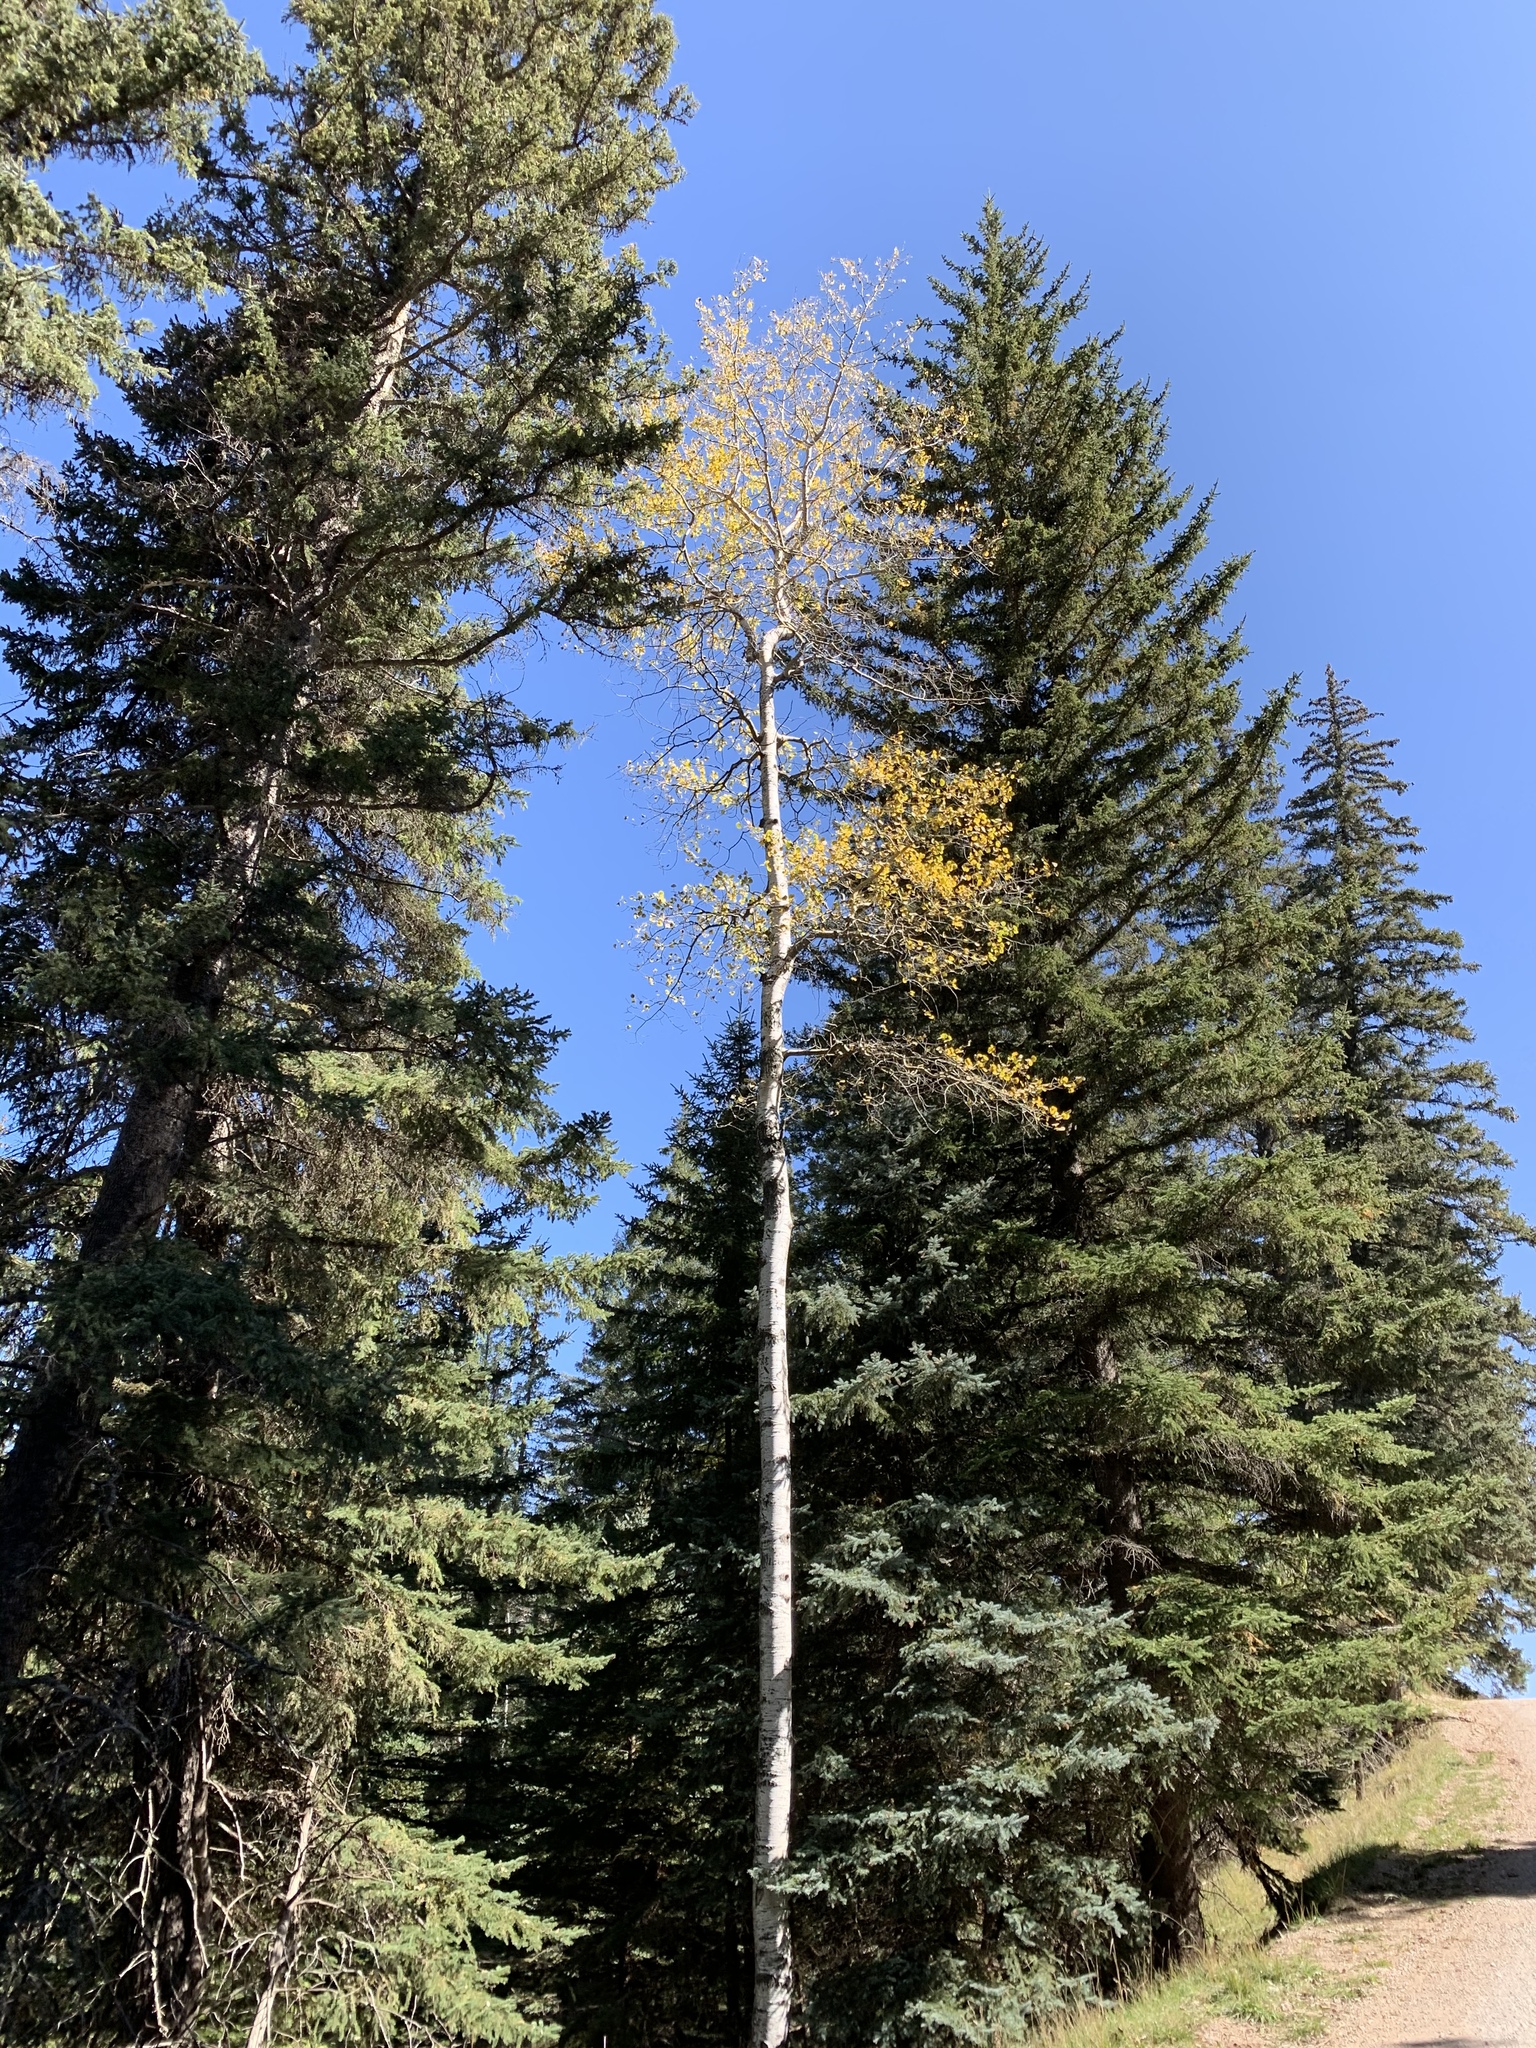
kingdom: Plantae
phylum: Tracheophyta
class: Magnoliopsida
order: Malpighiales
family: Salicaceae
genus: Populus
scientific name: Populus tremuloides
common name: Quaking aspen
